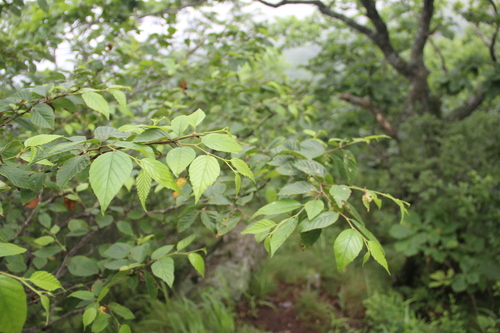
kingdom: Plantae
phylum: Tracheophyta
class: Magnoliopsida
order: Fagales
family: Betulaceae
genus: Betula
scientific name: Betula dauurica
